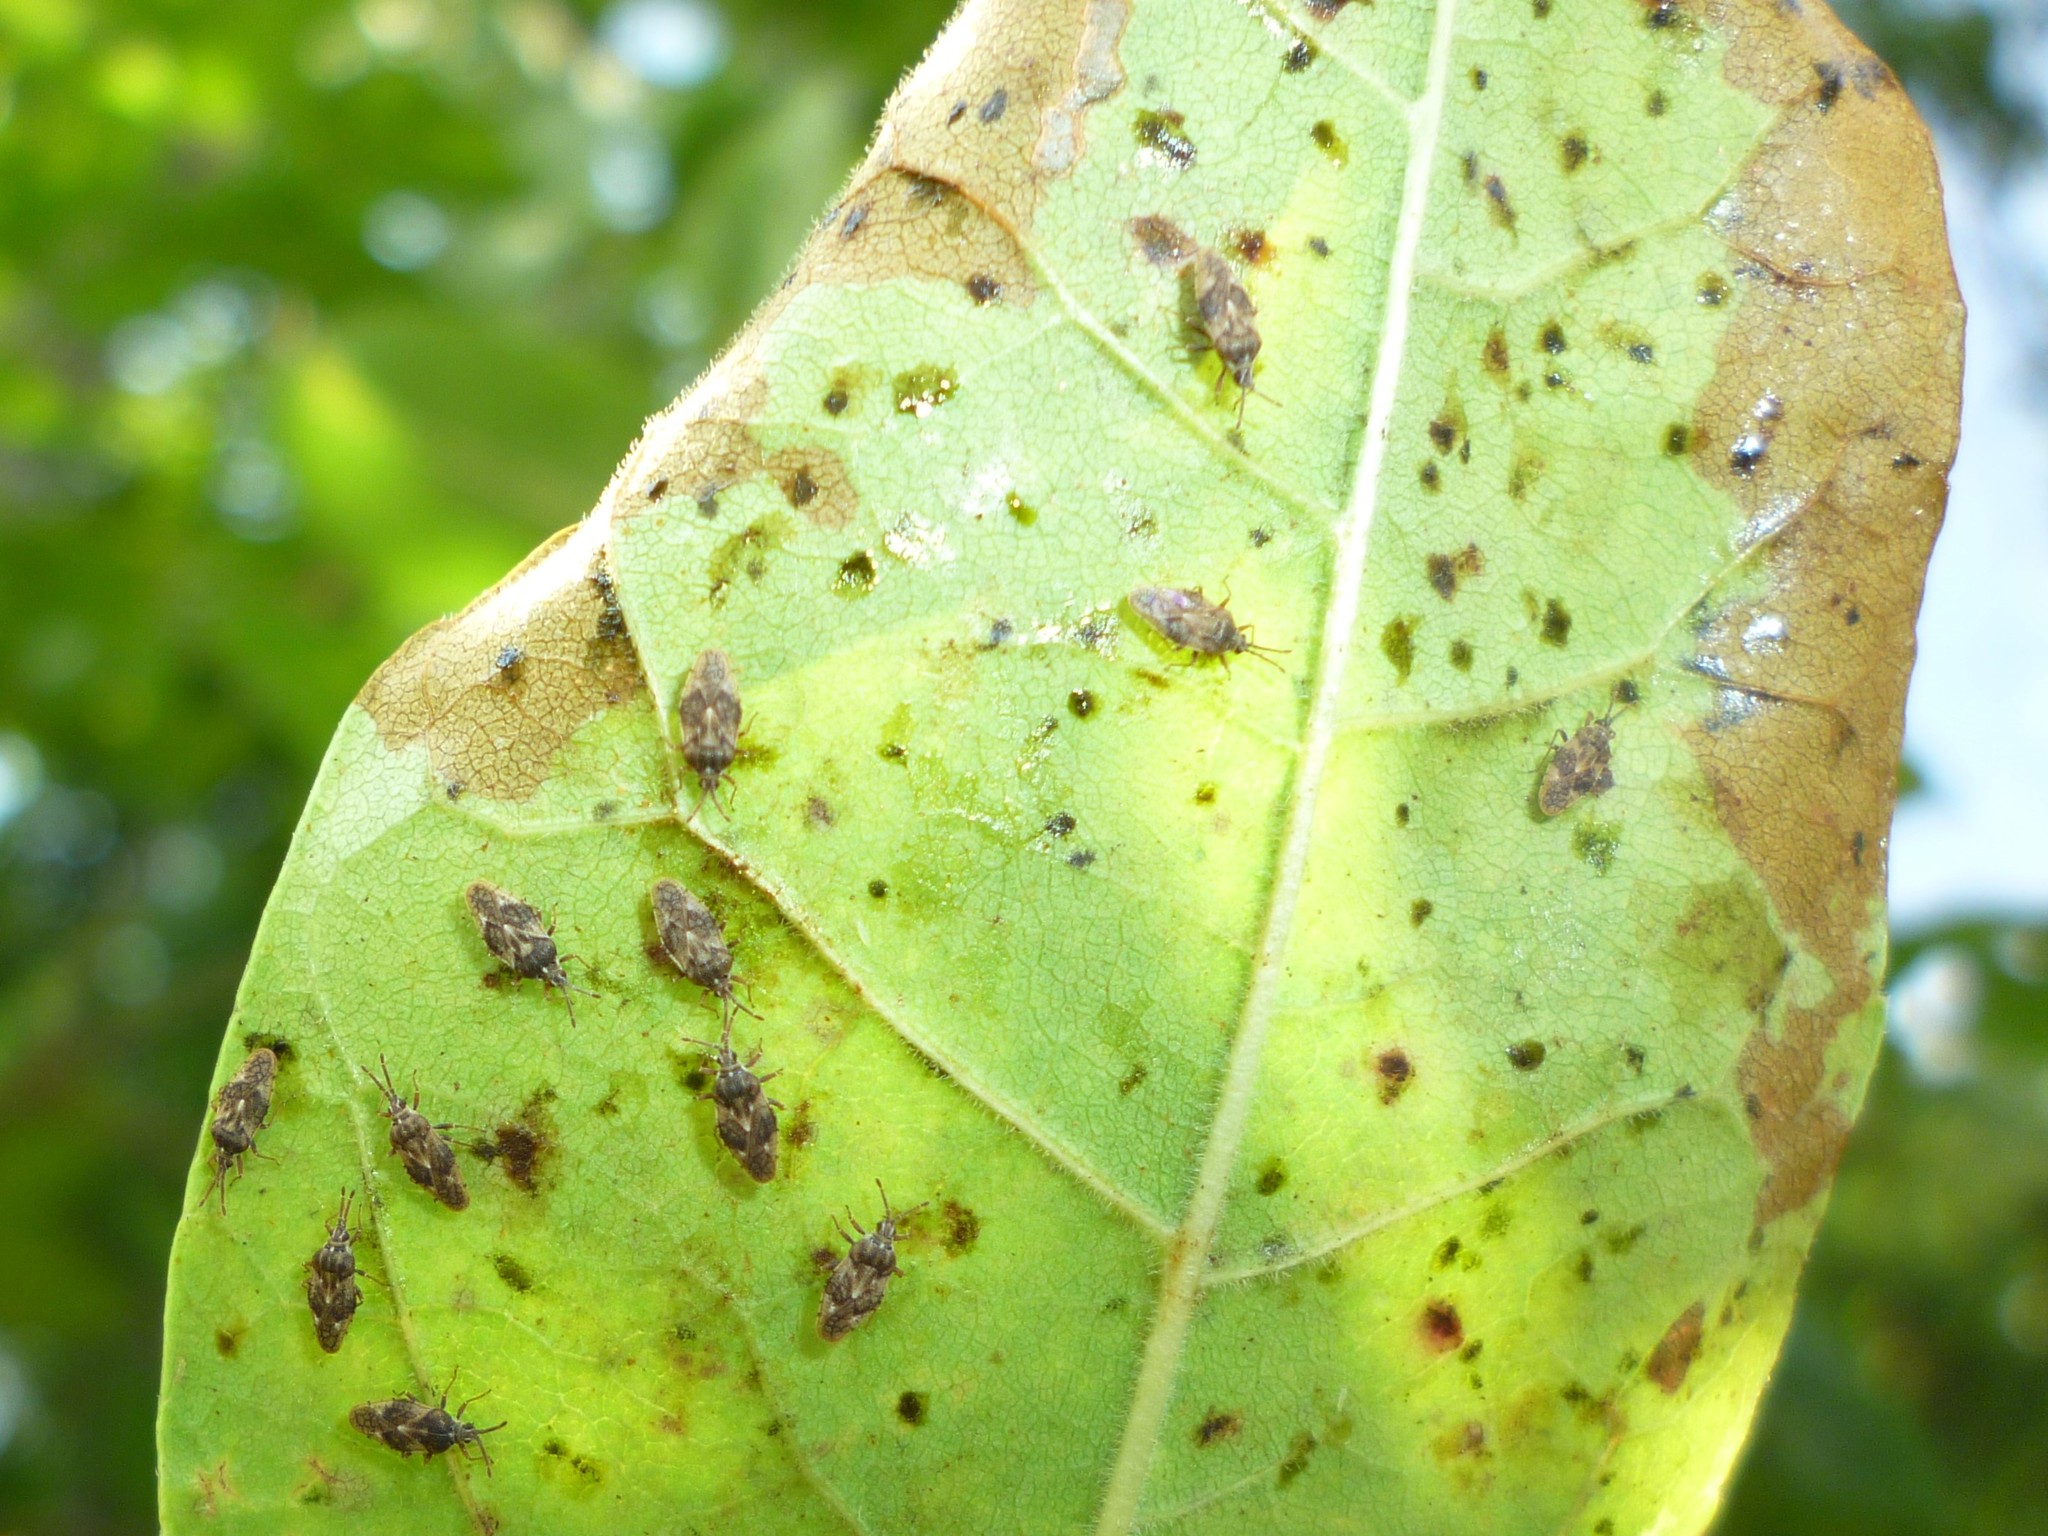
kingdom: Animalia
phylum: Arthropoda
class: Insecta
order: Hemiptera
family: Tingidae
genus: Leptoypha
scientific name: Leptoypha costata
